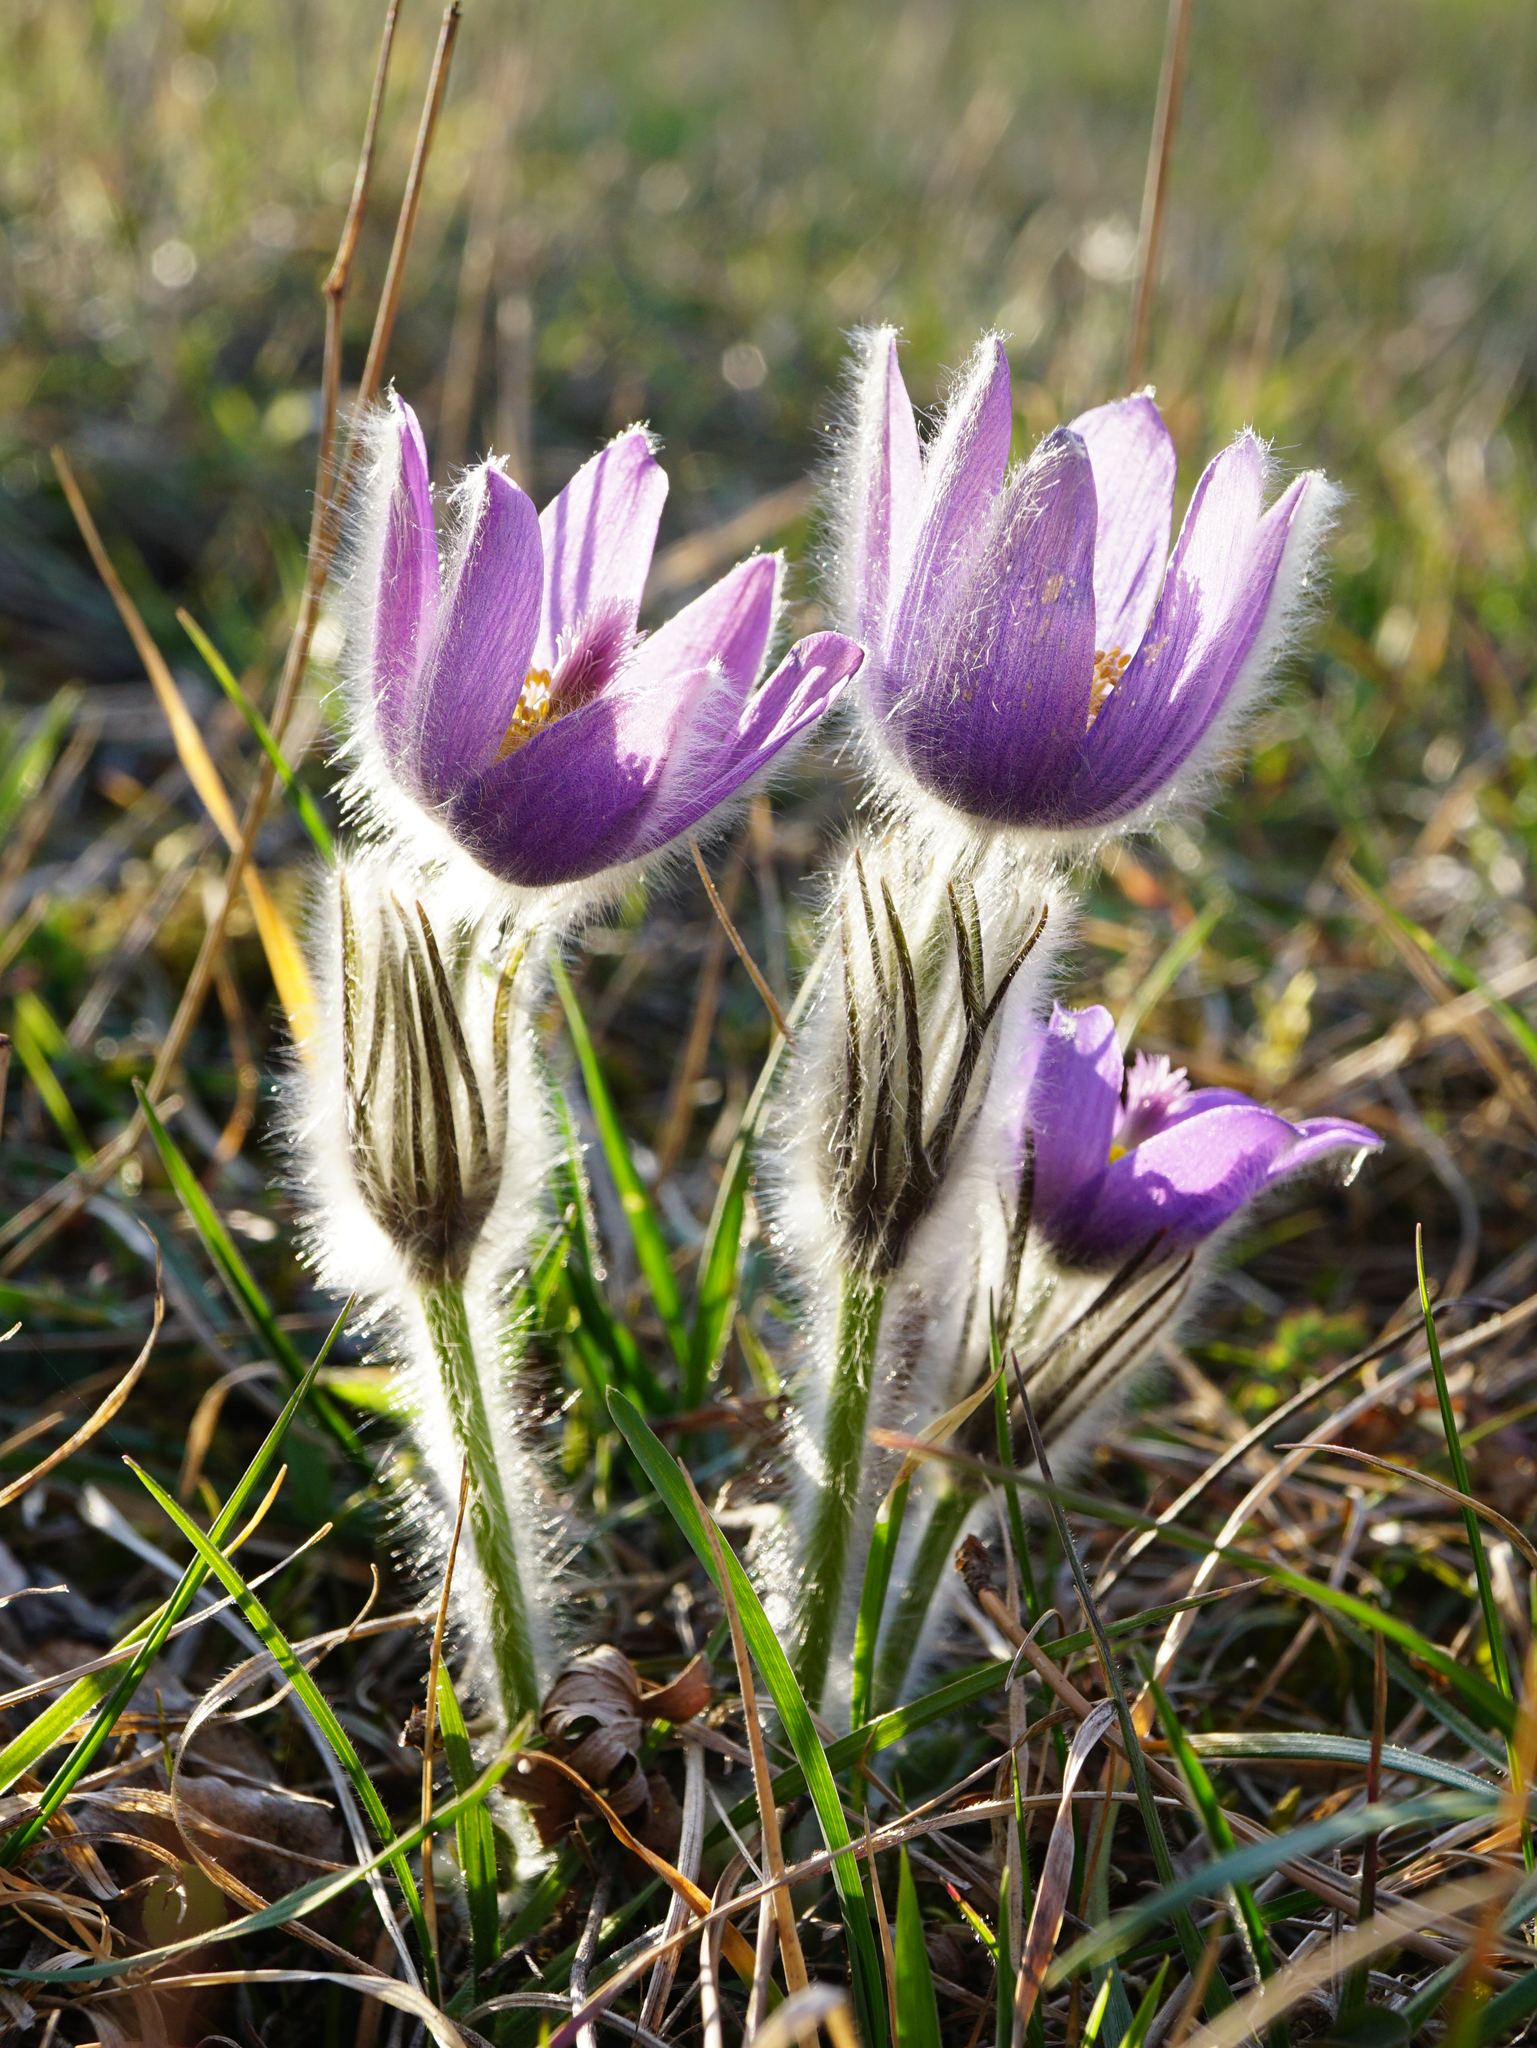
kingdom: Plantae
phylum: Tracheophyta
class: Magnoliopsida
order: Ranunculales
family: Ranunculaceae
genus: Pulsatilla
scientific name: Pulsatilla grandis
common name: Greater pasque flower
